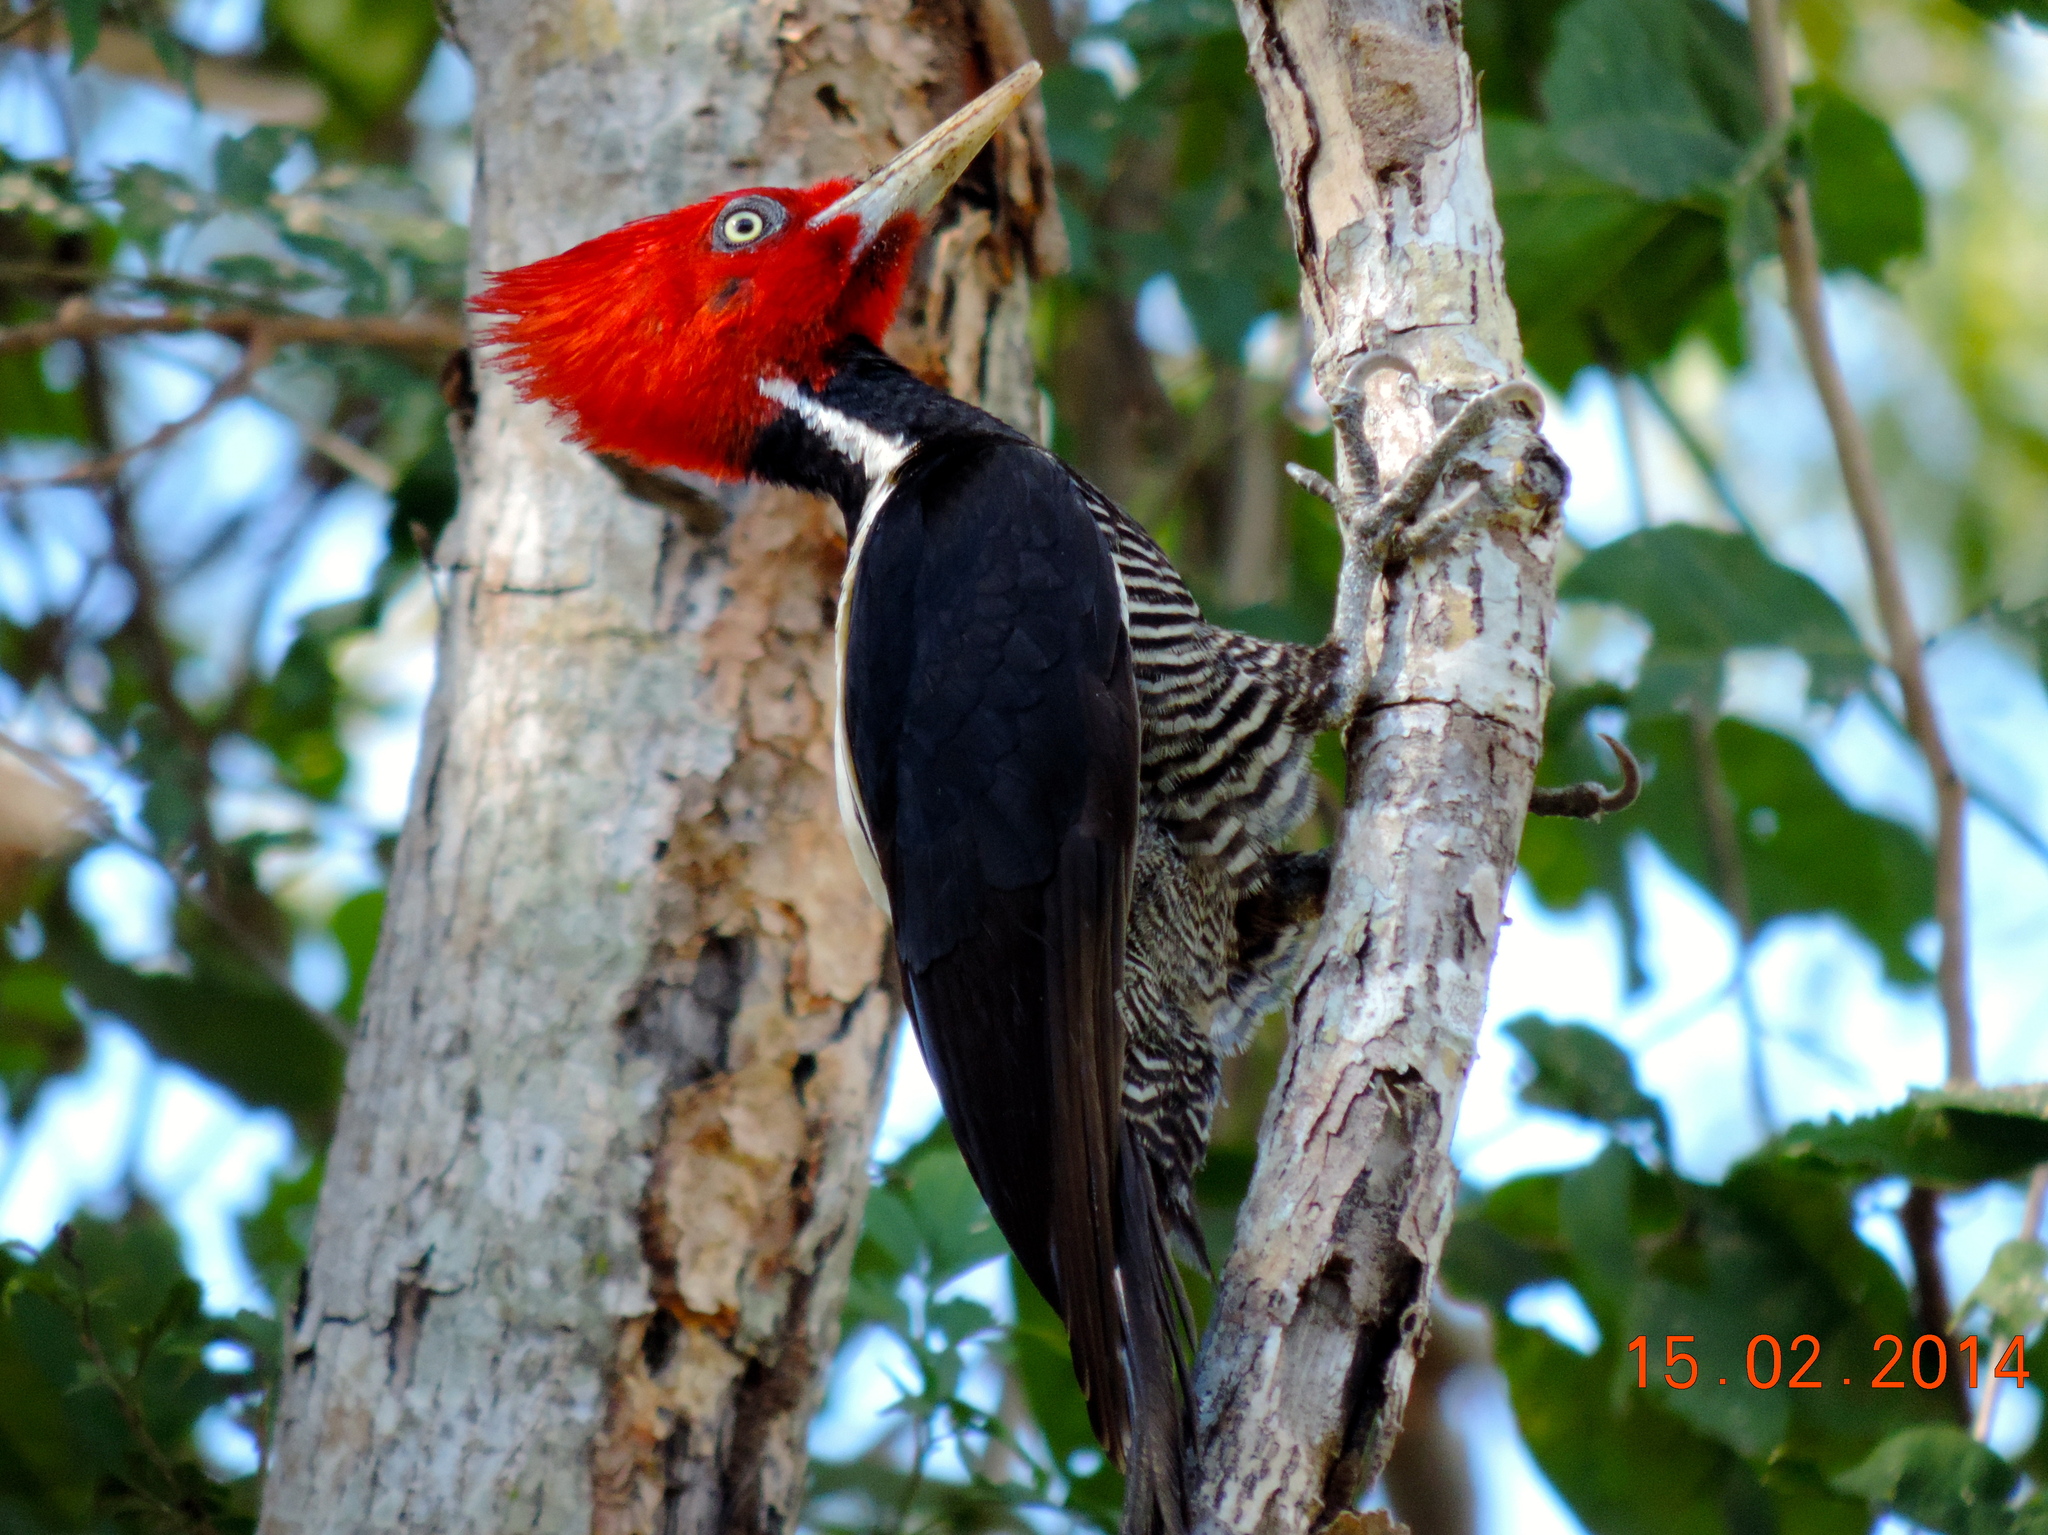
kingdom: Animalia
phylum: Chordata
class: Aves
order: Piciformes
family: Picidae
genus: Campephilus
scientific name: Campephilus guatemalensis
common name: Pale-billed woodpecker
